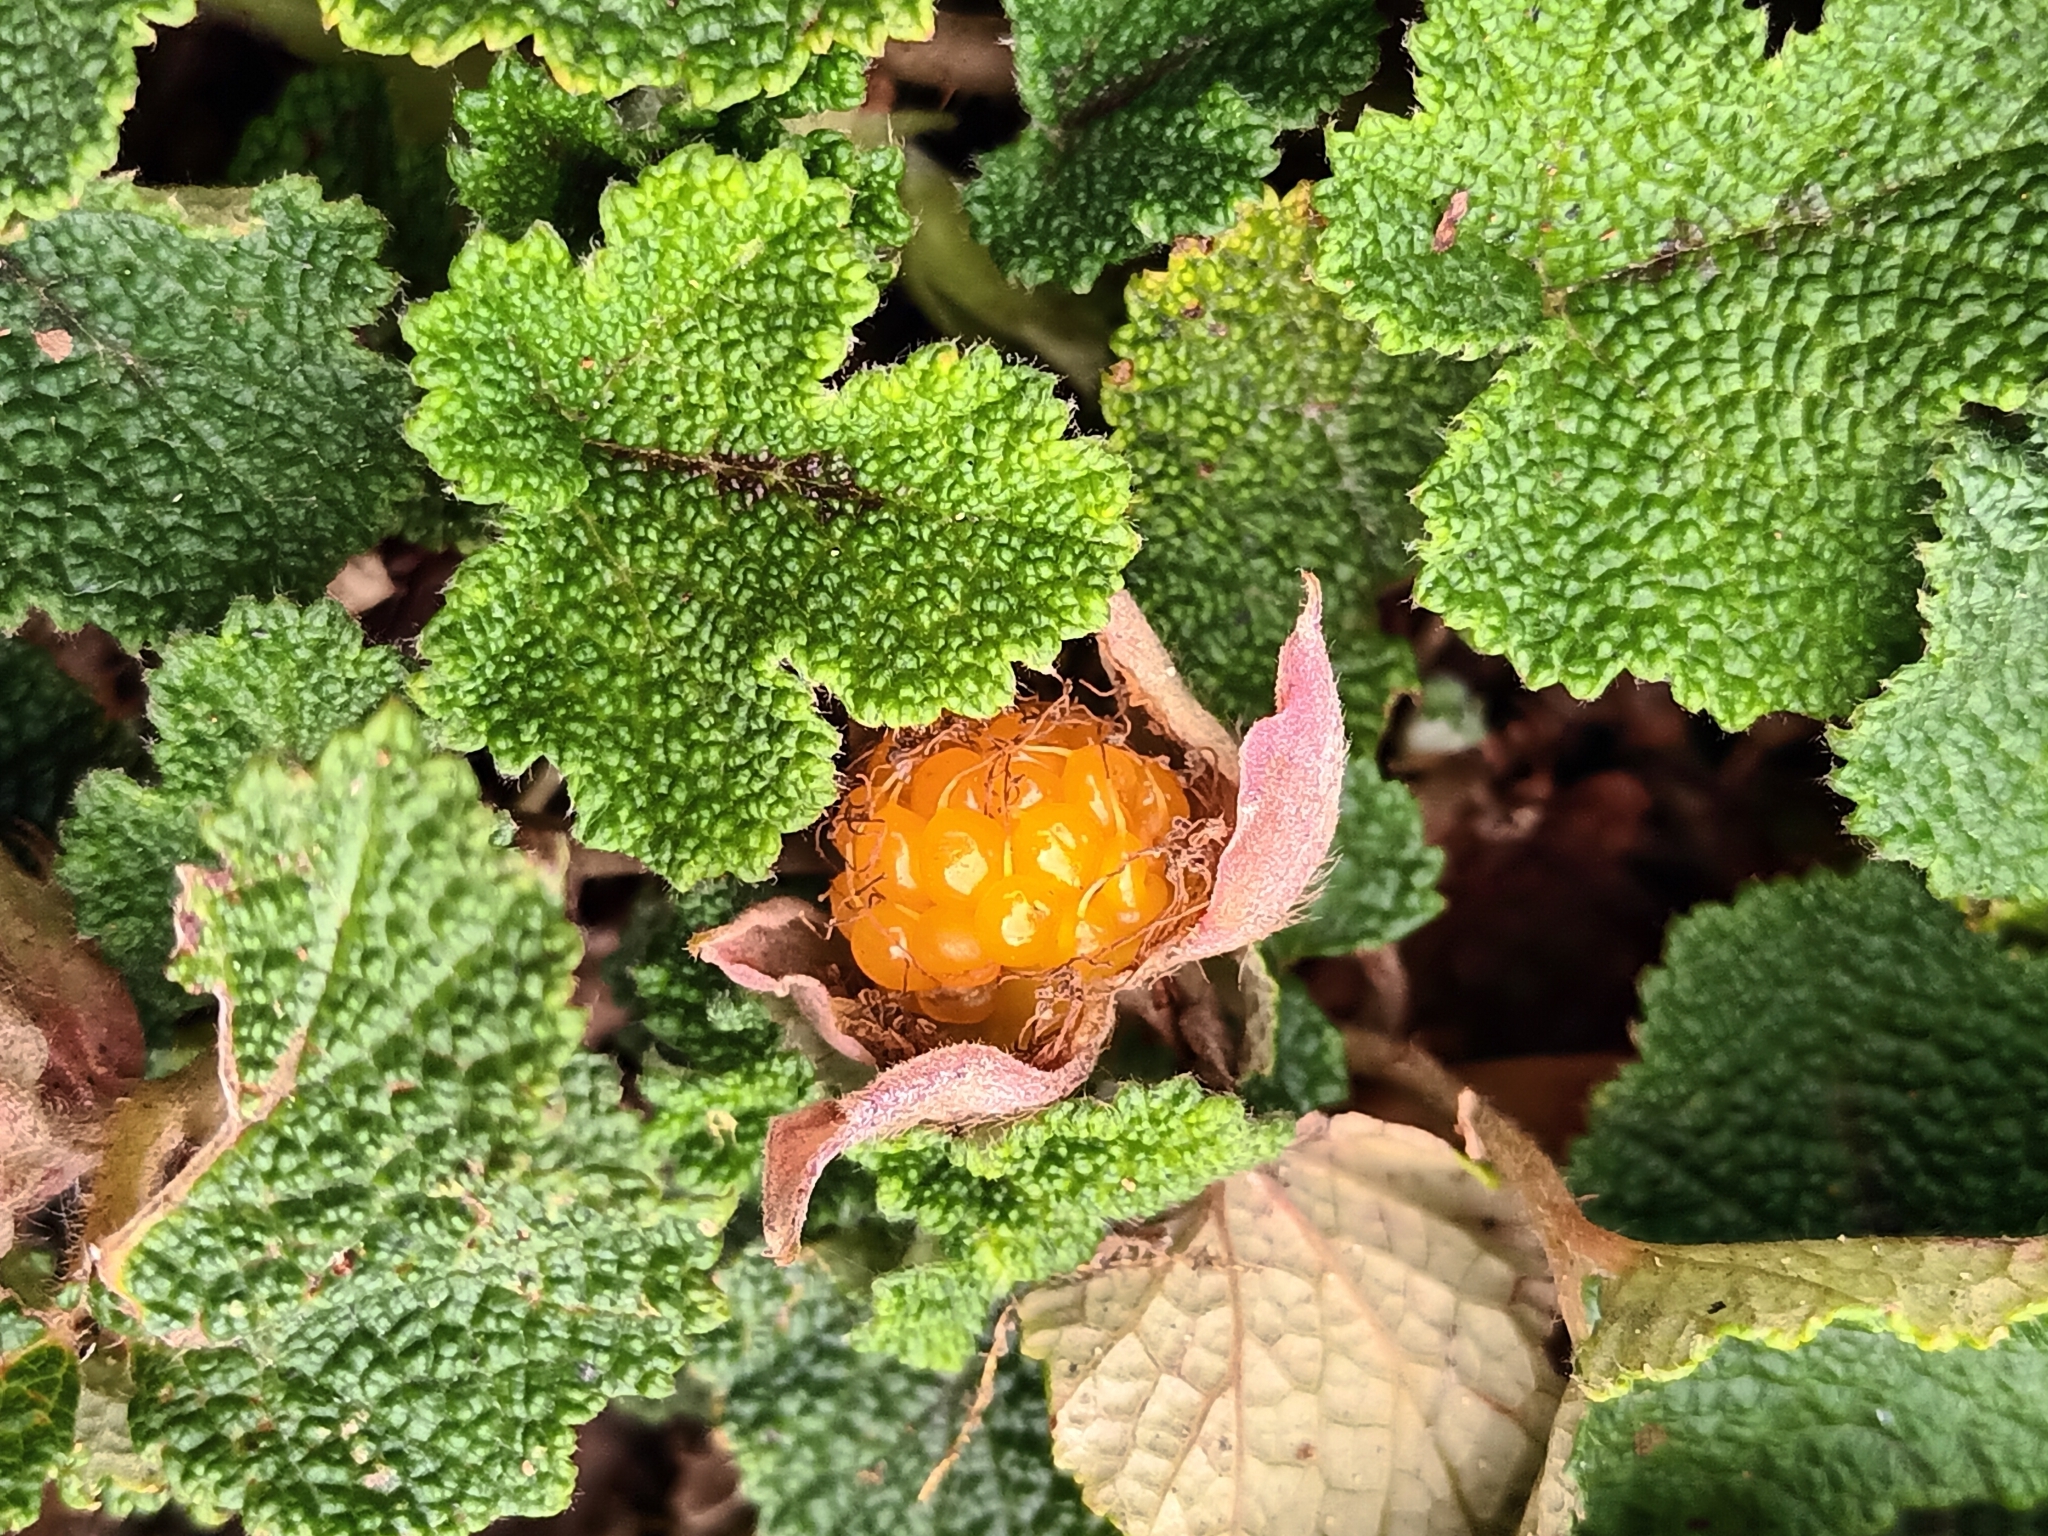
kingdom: Plantae
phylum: Tracheophyta
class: Magnoliopsida
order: Rosales
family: Rosaceae
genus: Rubus
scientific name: Rubus rolfei
